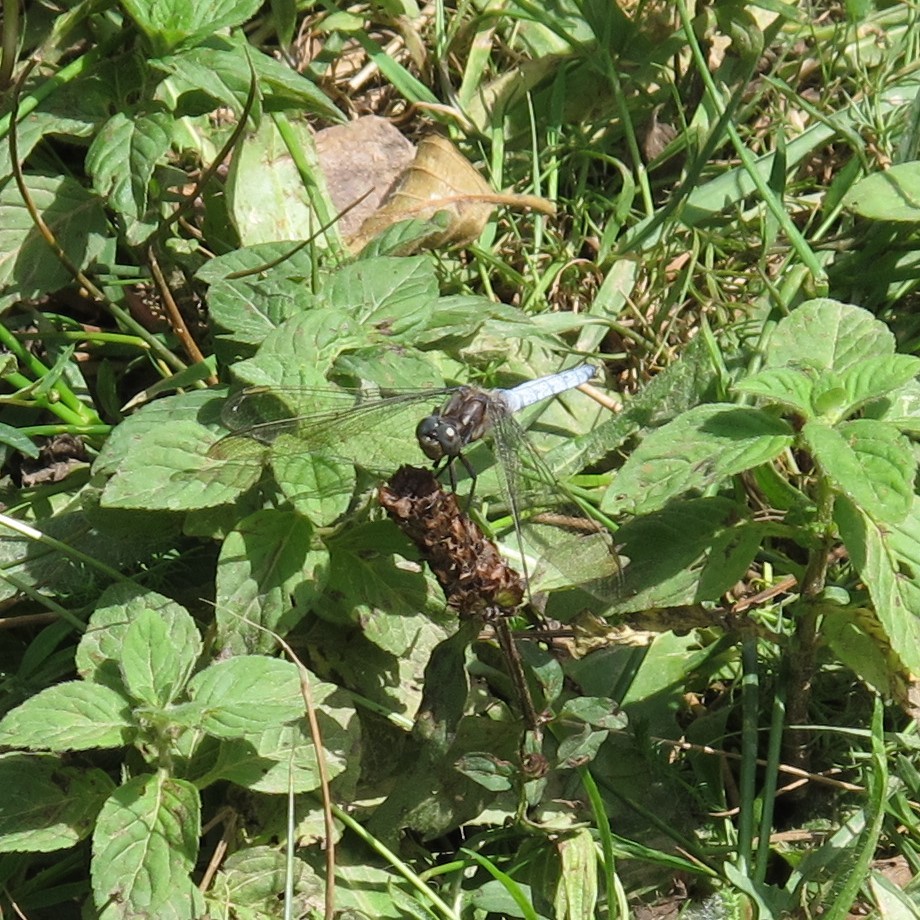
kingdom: Animalia
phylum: Arthropoda
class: Insecta
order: Odonata
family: Libellulidae
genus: Orthetrum
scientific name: Orthetrum coerulescens
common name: Keeled skimmer
